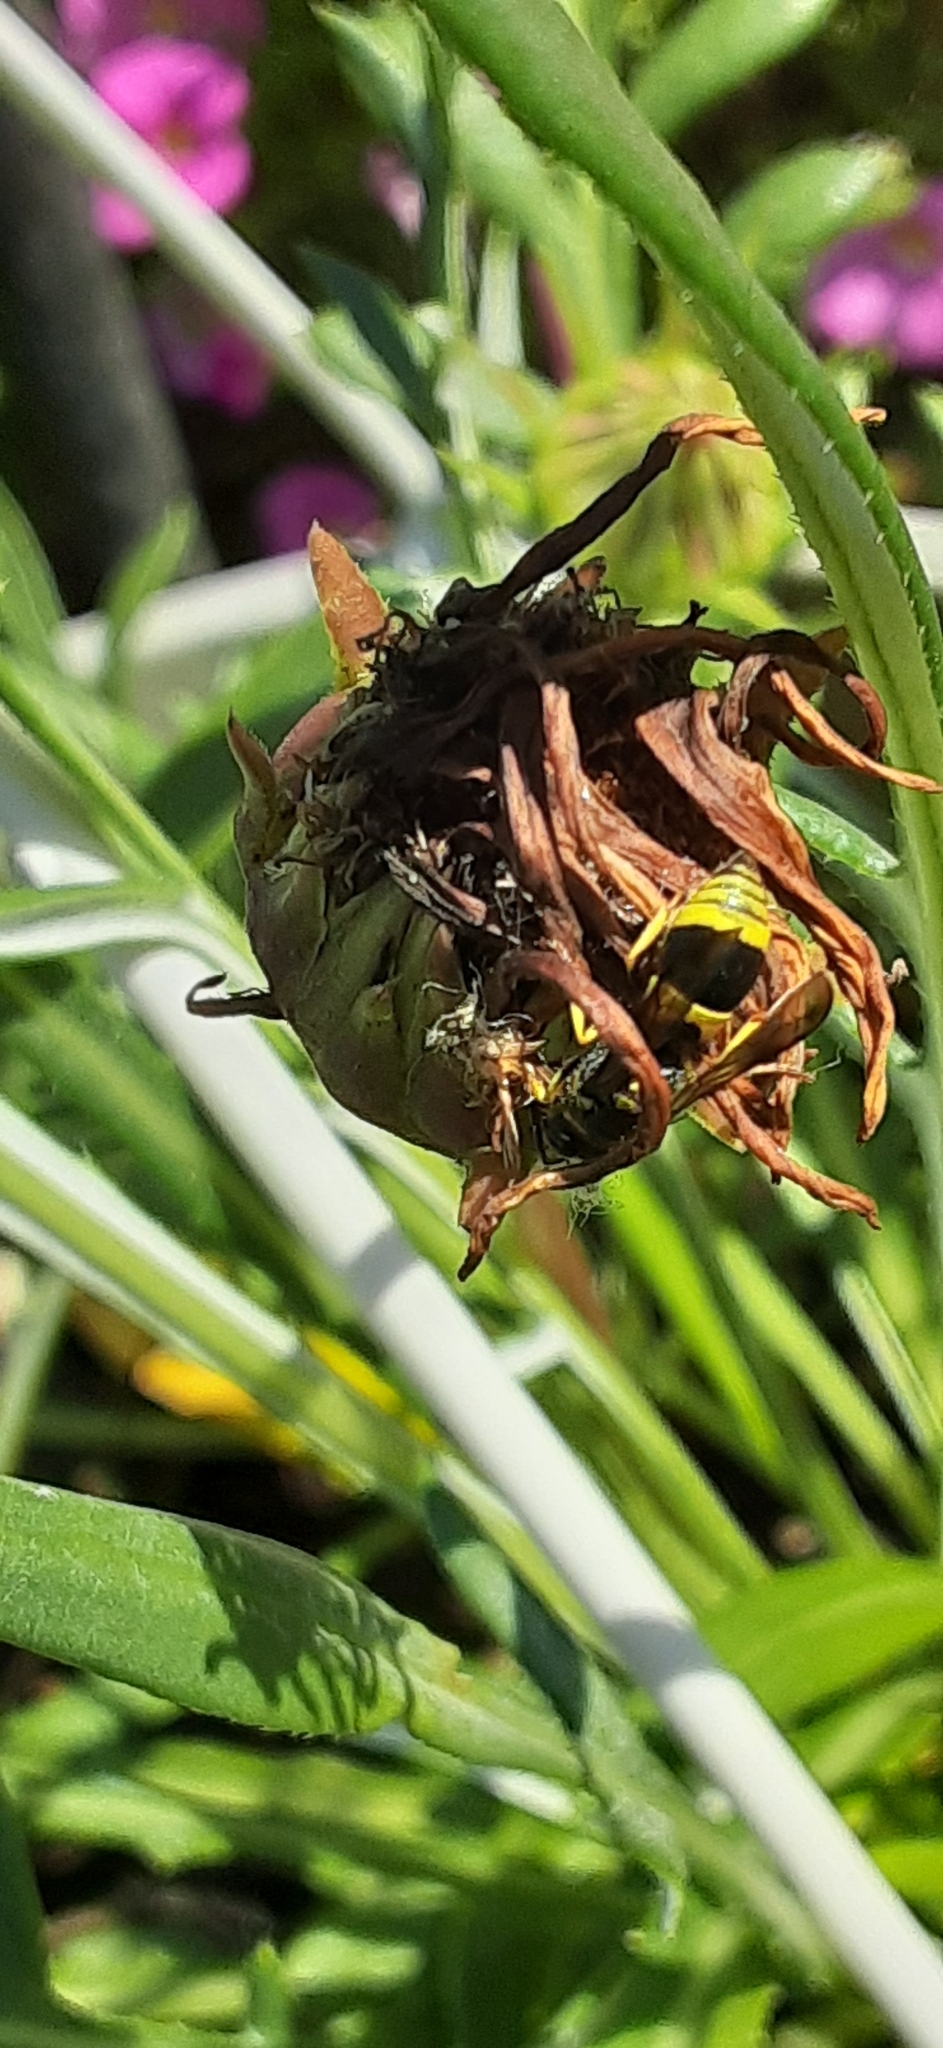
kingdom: Animalia
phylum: Arthropoda
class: Insecta
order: Hymenoptera
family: Vespidae
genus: Ancistrocerus
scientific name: Ancistrocerus gazella
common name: European tube wasp
